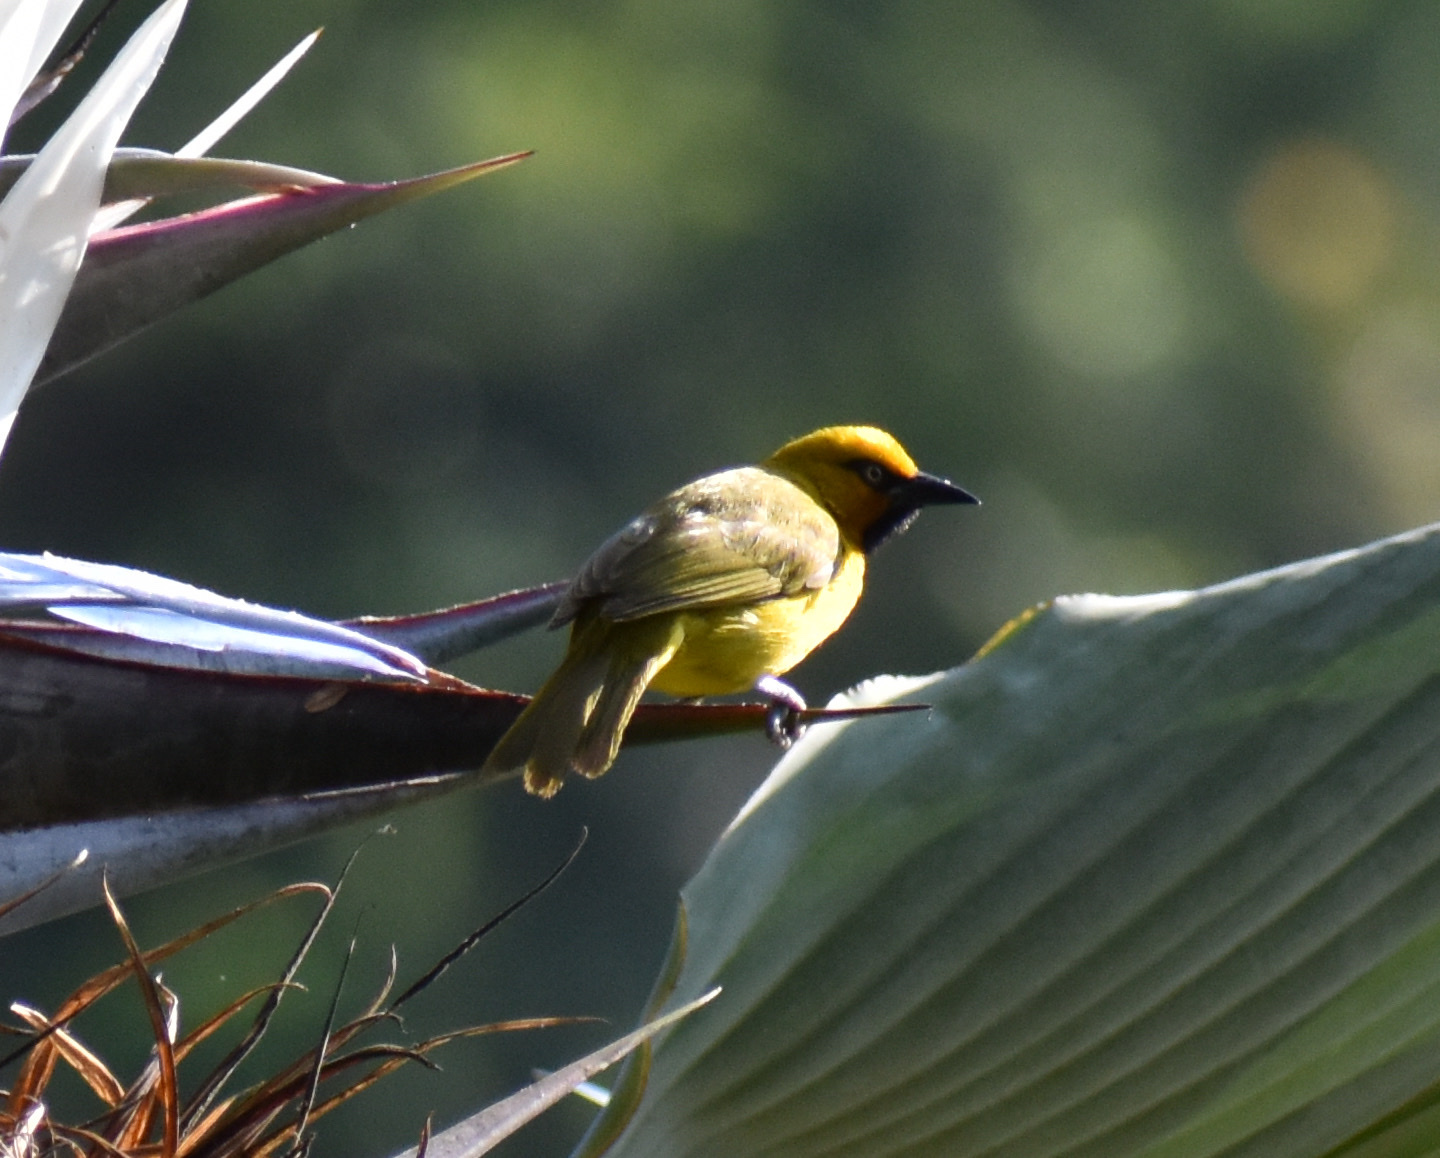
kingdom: Animalia
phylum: Chordata
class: Aves
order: Passeriformes
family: Ploceidae
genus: Ploceus
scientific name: Ploceus ocularis
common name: Spectacled weaver
